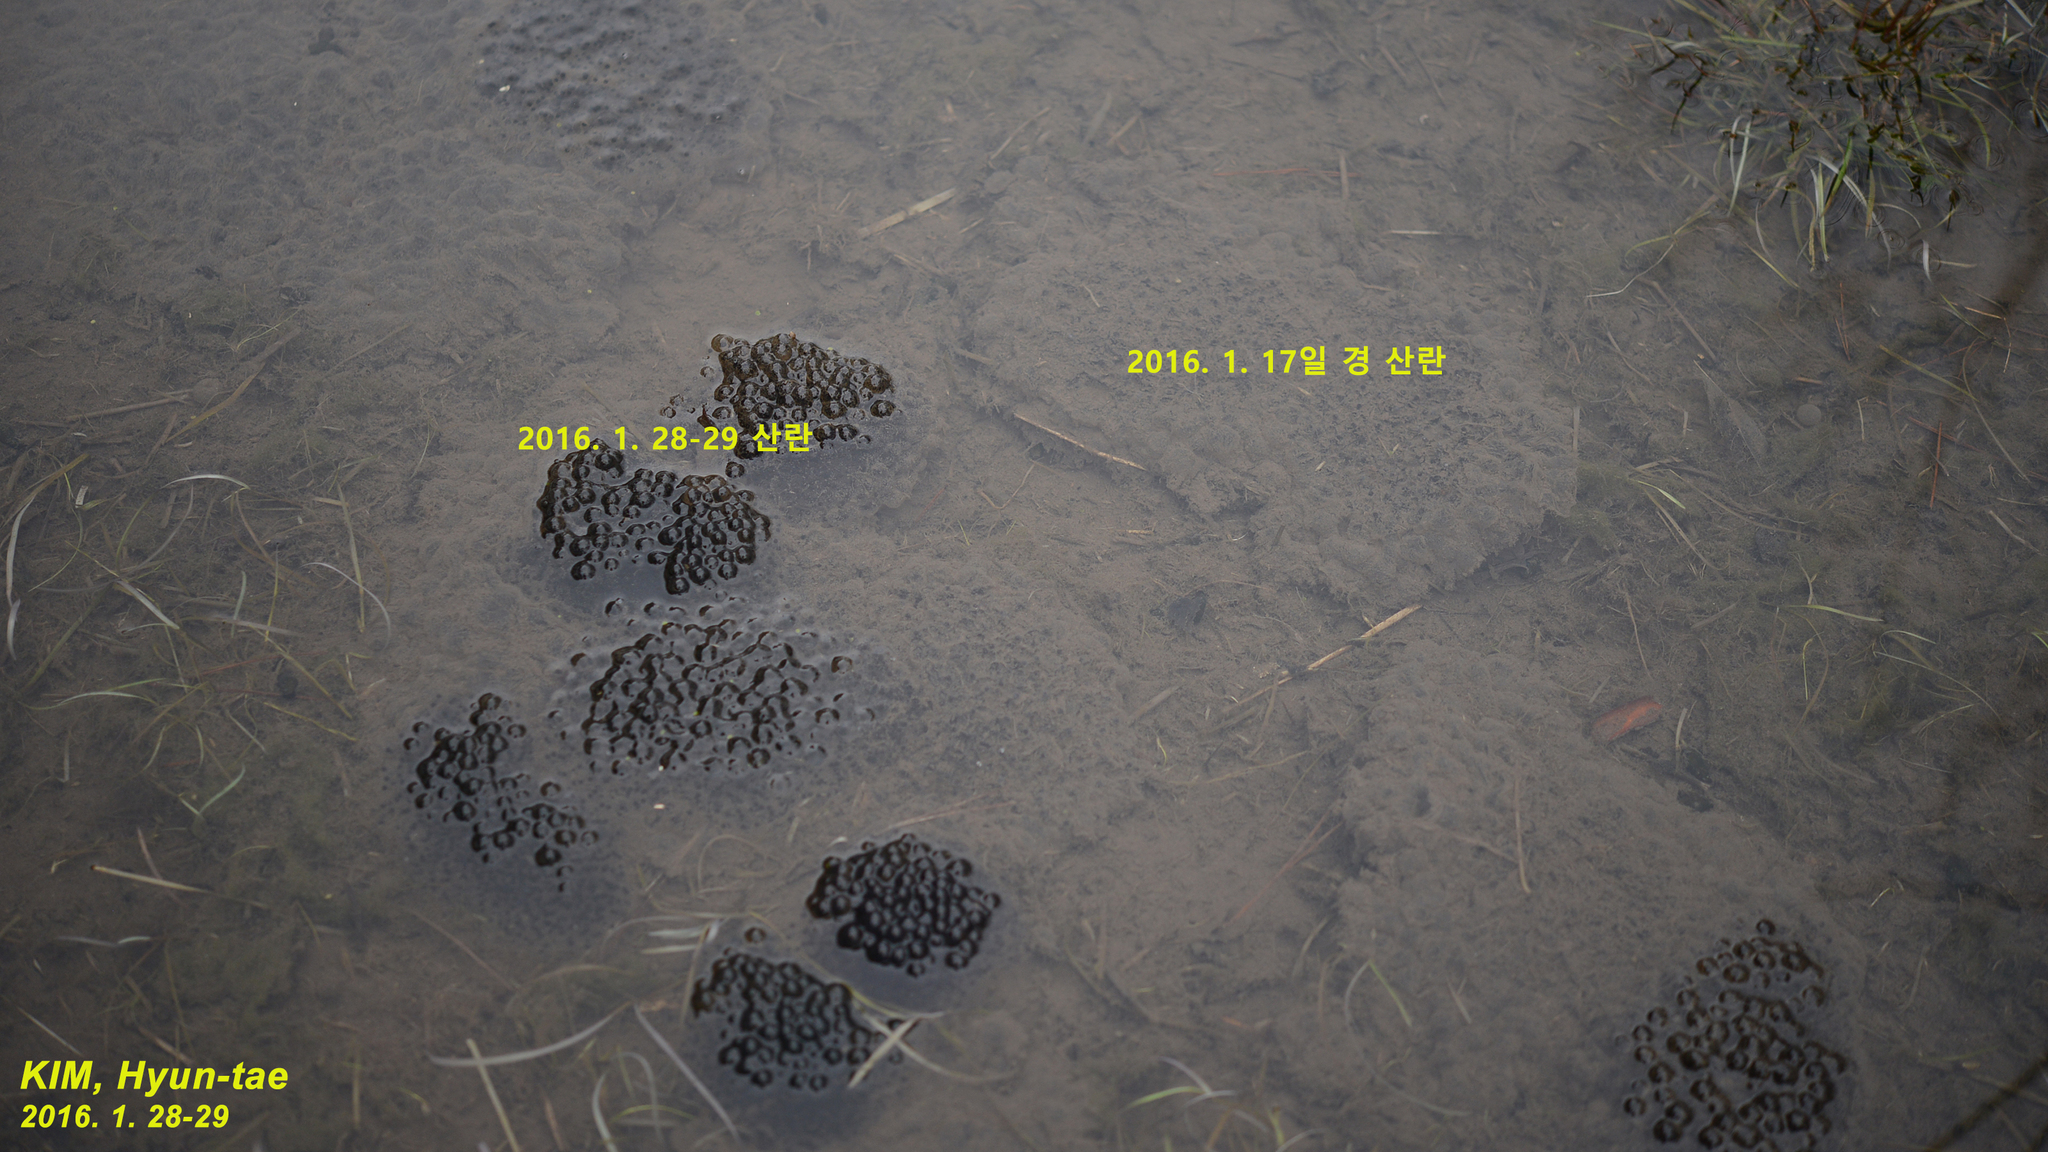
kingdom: Animalia
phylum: Chordata
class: Amphibia
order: Anura
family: Ranidae
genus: Rana
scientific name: Rana uenoi
